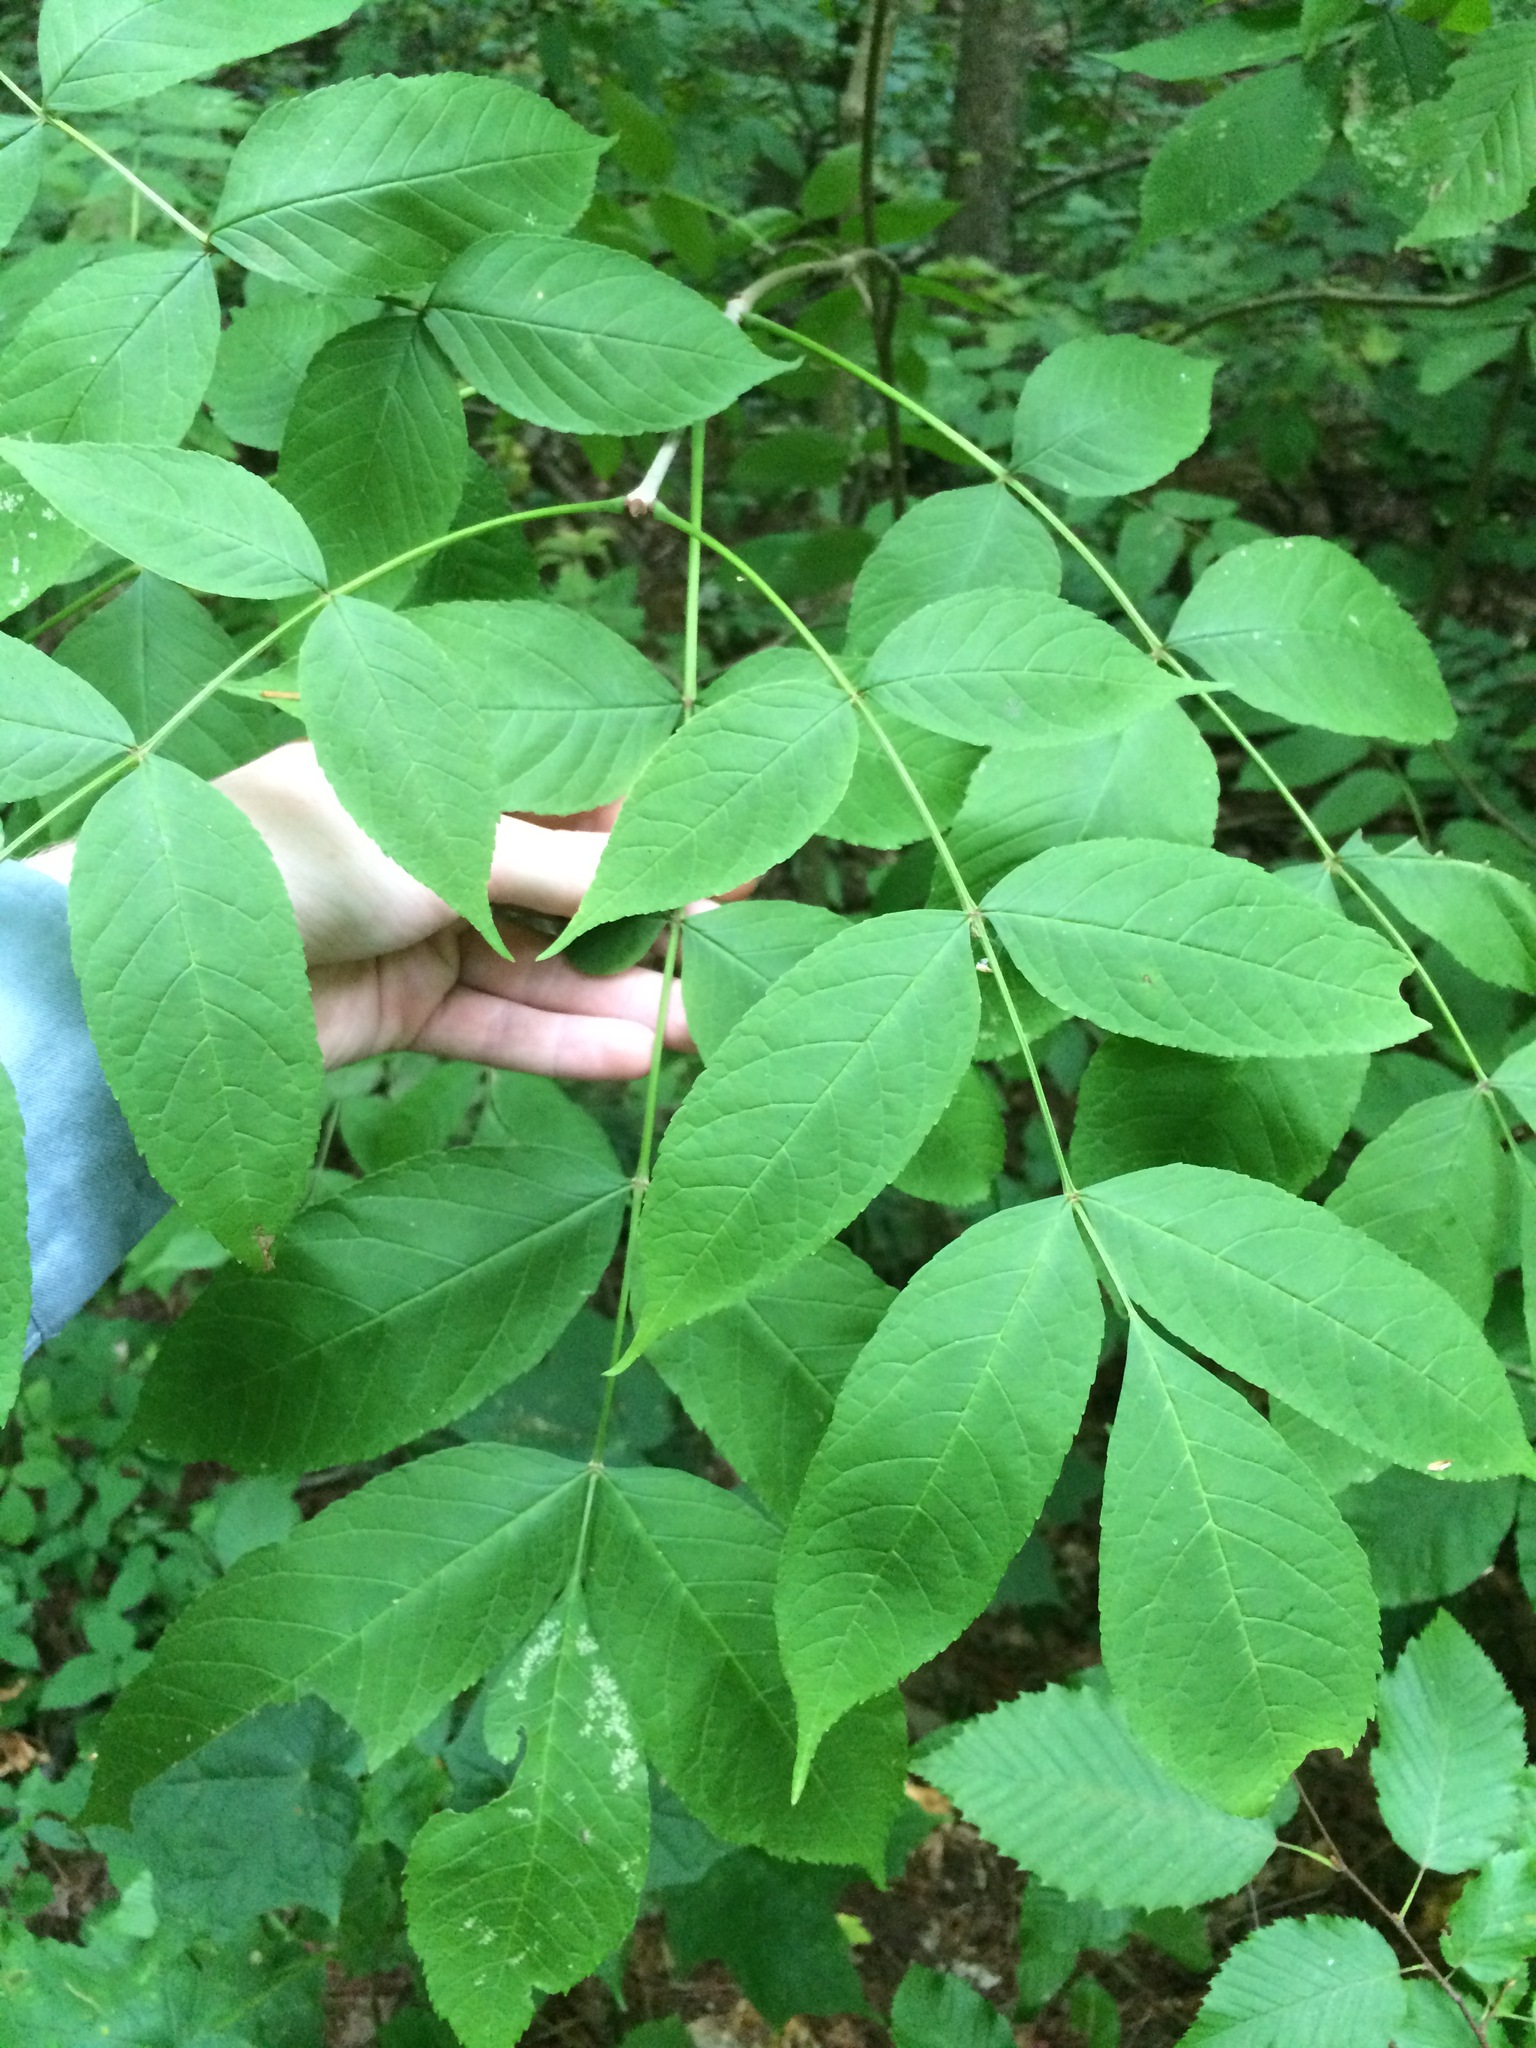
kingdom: Plantae
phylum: Tracheophyta
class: Magnoliopsida
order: Lamiales
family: Oleaceae
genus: Fraxinus
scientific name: Fraxinus nigra
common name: Black ash
